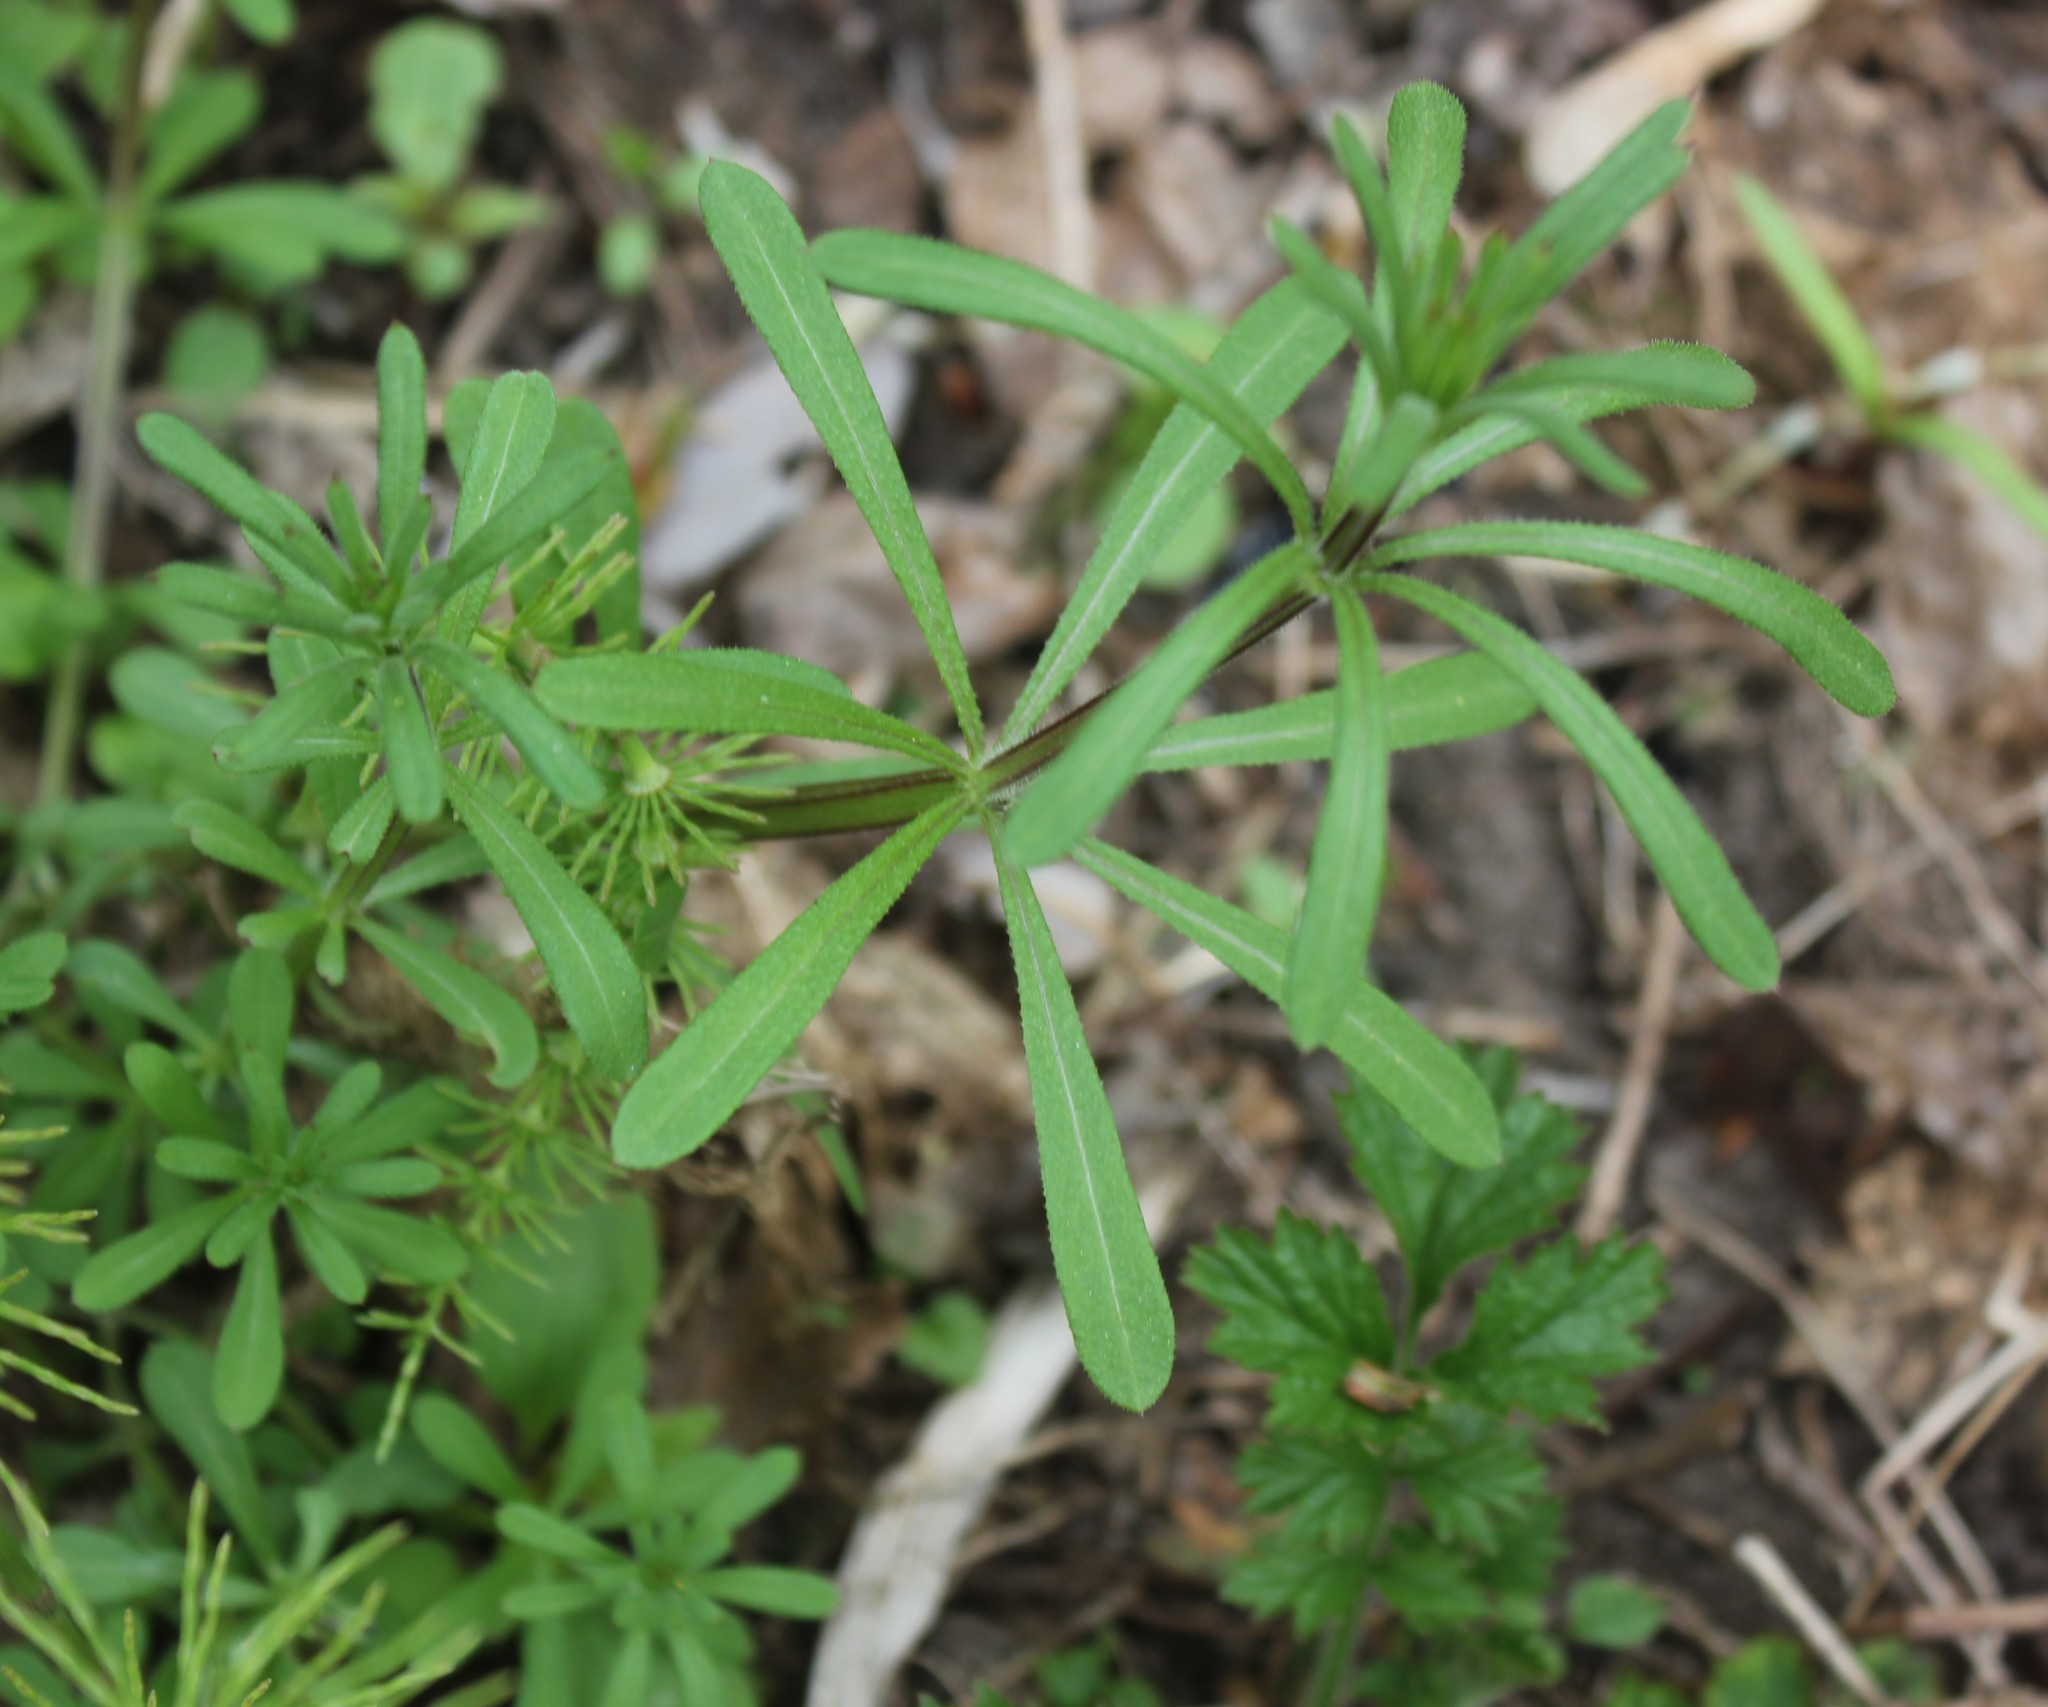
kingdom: Plantae
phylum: Tracheophyta
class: Magnoliopsida
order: Gentianales
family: Rubiaceae
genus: Galium
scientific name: Galium aparine
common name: Cleavers
